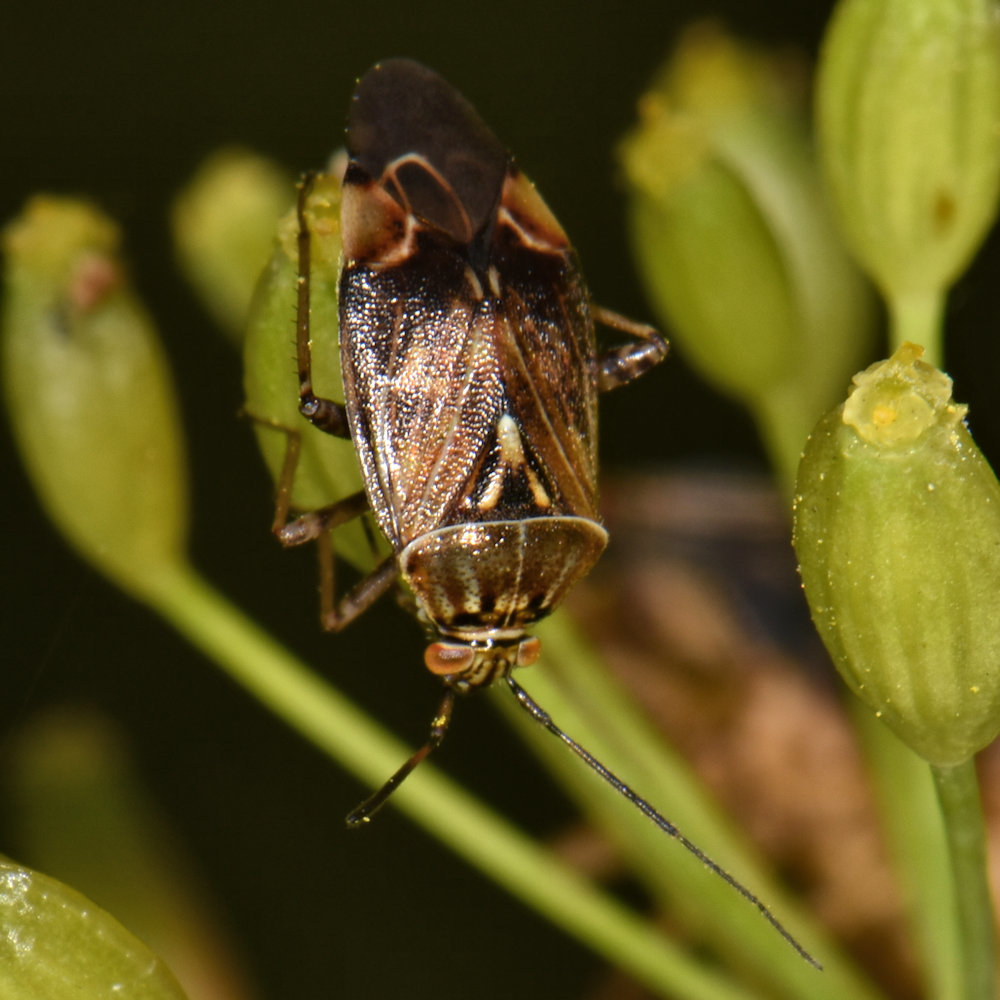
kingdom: Animalia
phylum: Arthropoda
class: Insecta
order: Hemiptera
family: Miridae
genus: Lygus
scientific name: Lygus lineolaris
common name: North american tarnished plant bug
